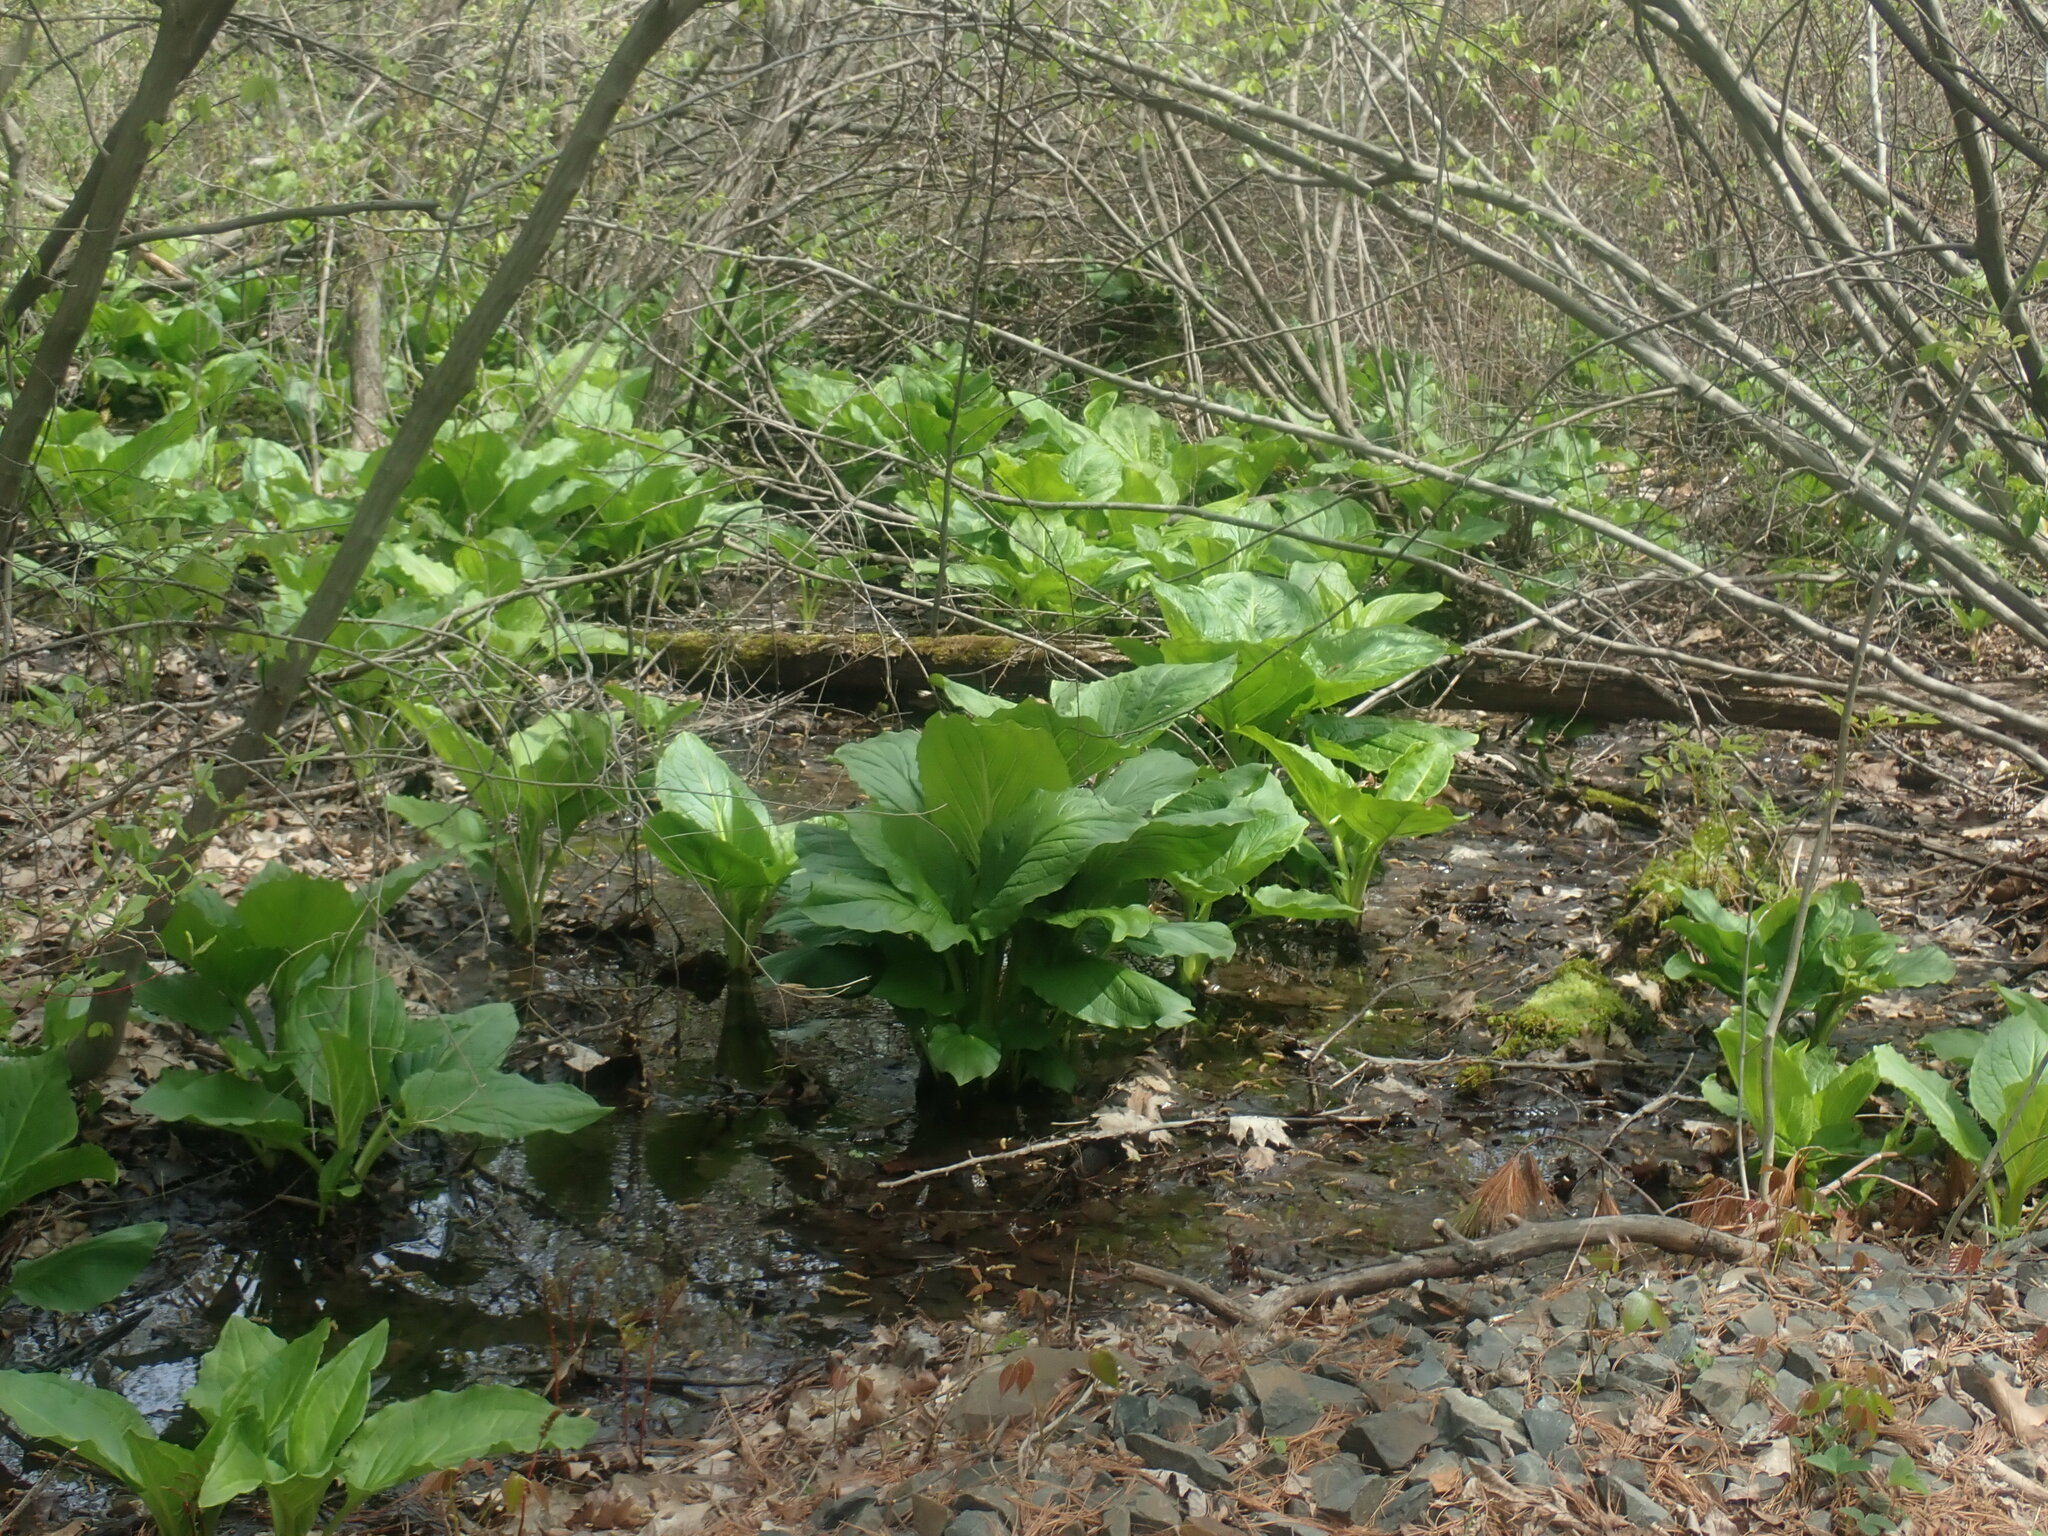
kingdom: Plantae
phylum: Tracheophyta
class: Liliopsida
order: Alismatales
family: Araceae
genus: Symplocarpus
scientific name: Symplocarpus foetidus
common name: Eastern skunk cabbage
